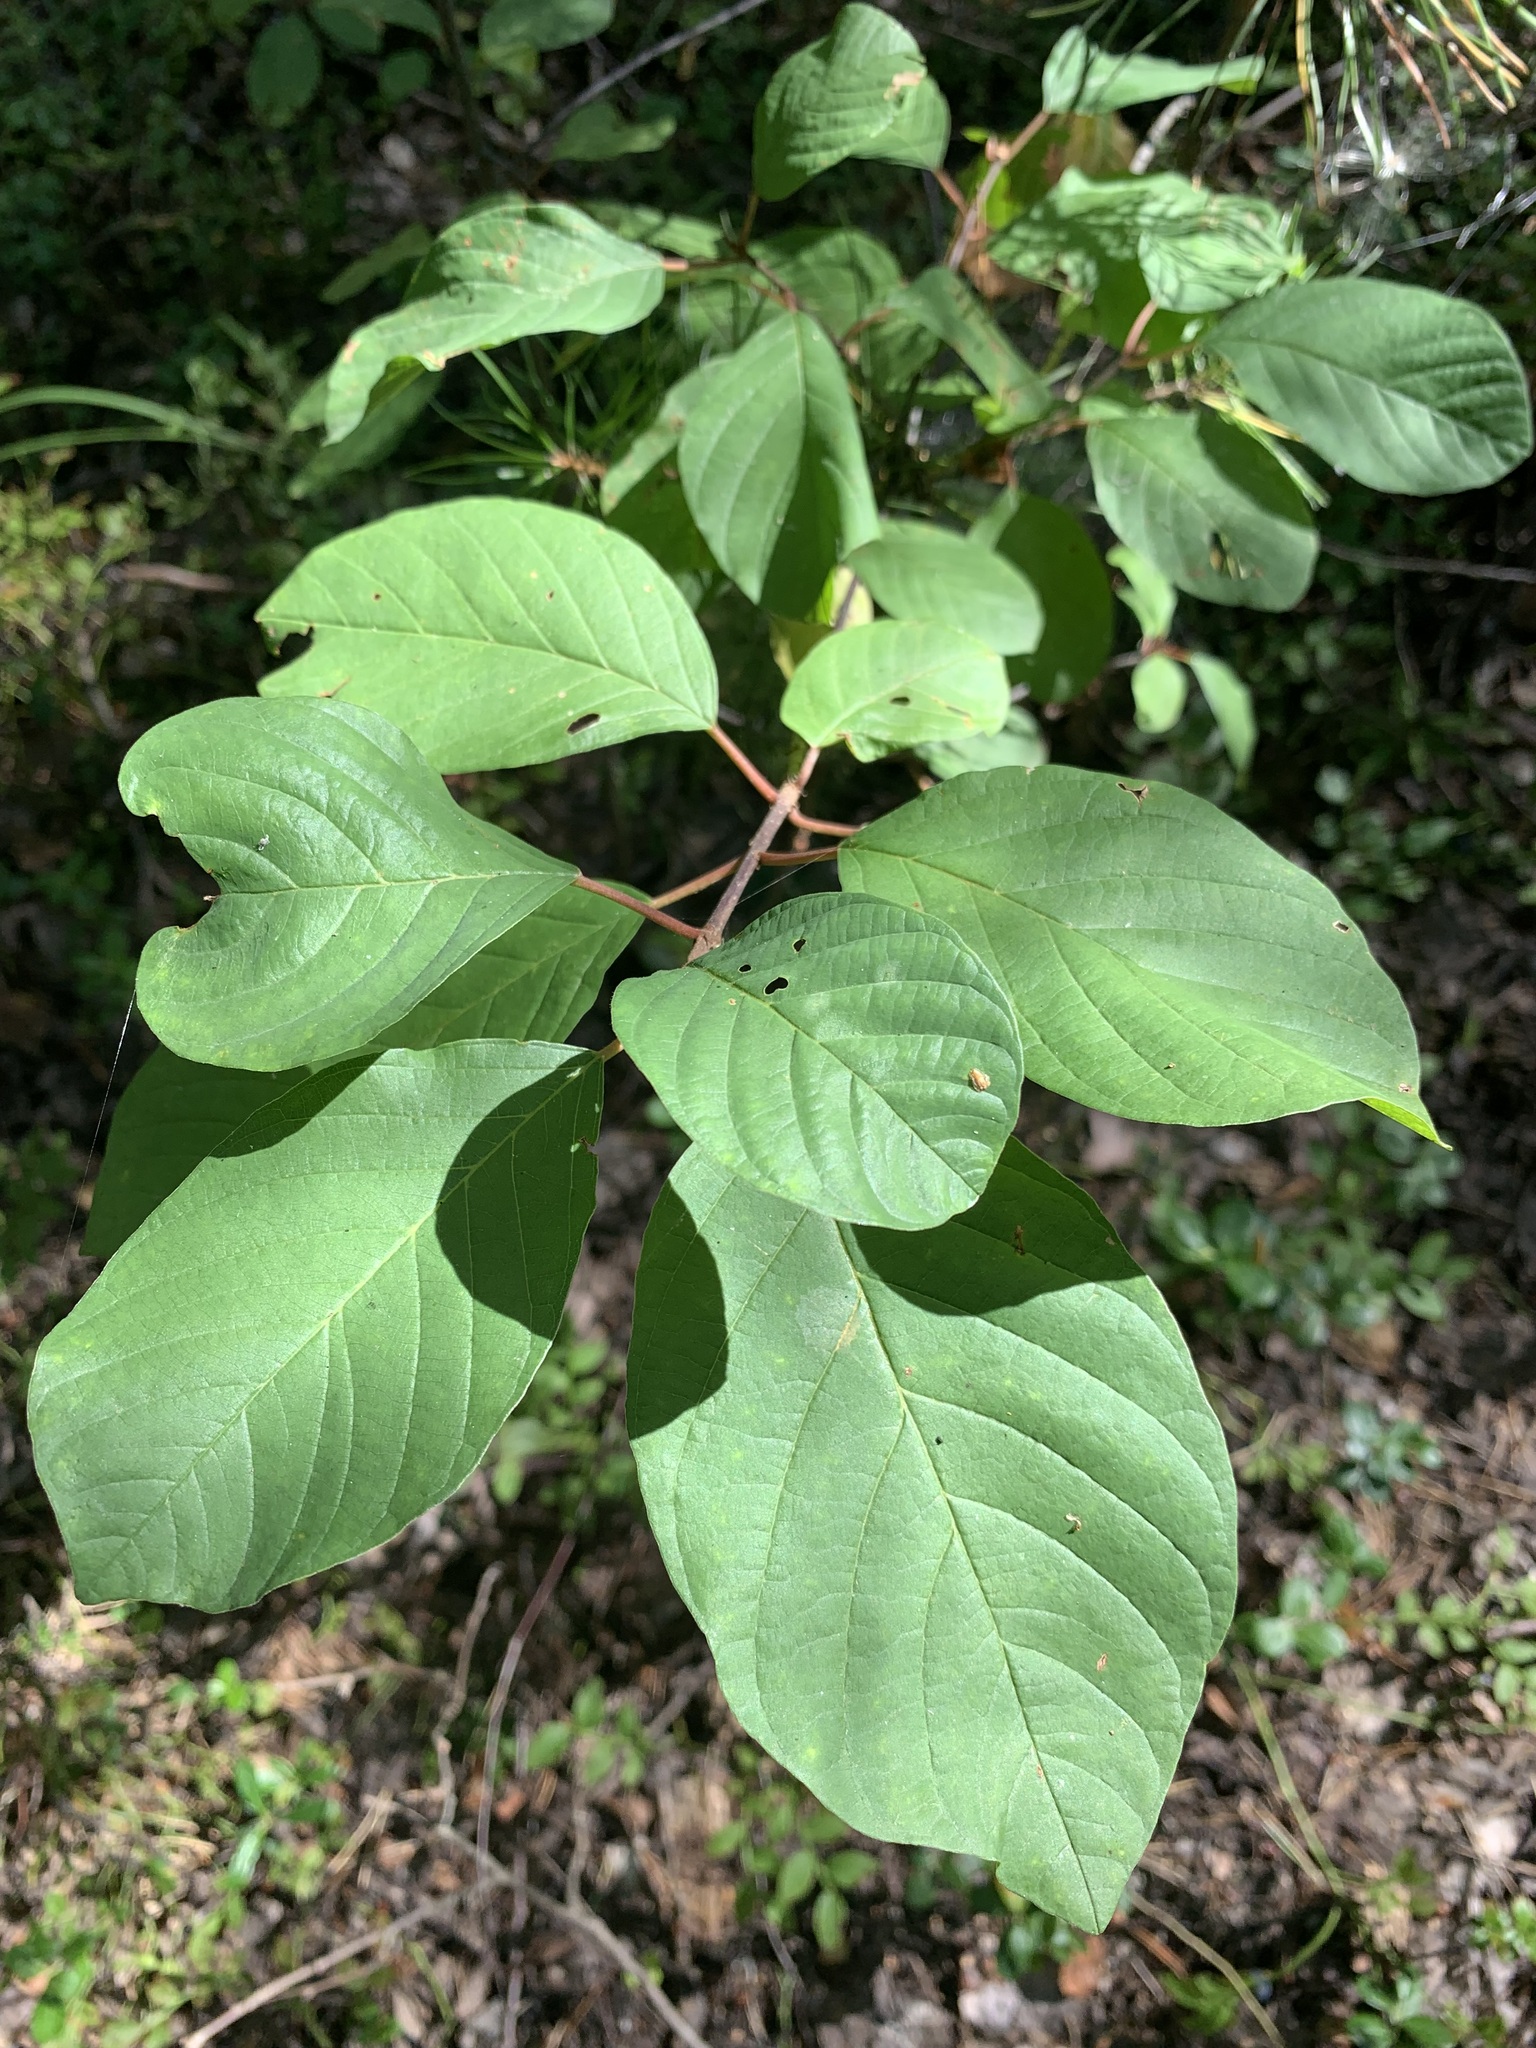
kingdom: Plantae
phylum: Tracheophyta
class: Magnoliopsida
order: Rosales
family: Rhamnaceae
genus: Frangula
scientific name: Frangula alnus
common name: Alder buckthorn
